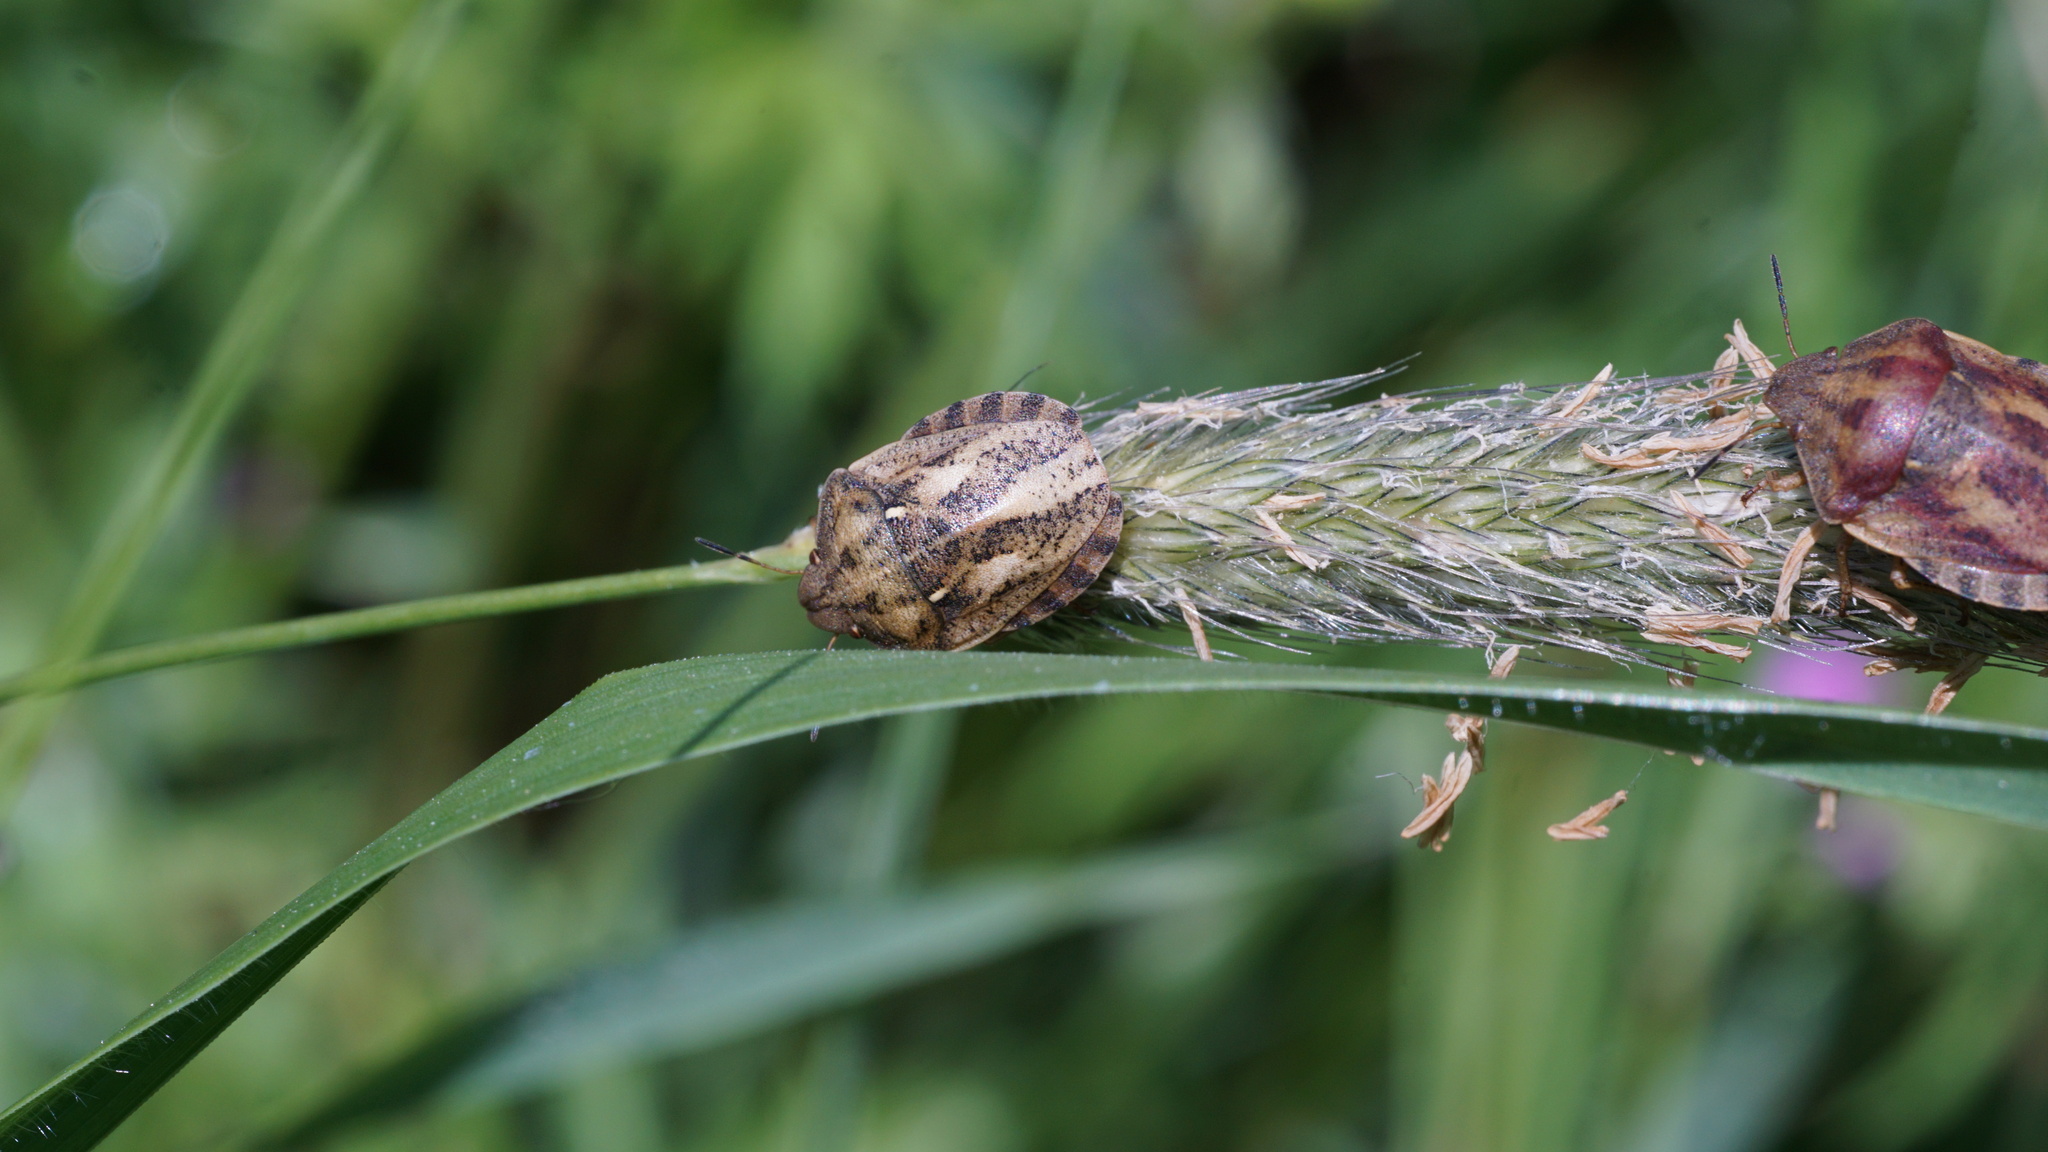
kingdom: Animalia
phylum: Arthropoda
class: Insecta
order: Hemiptera
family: Scutelleridae
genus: Eurygaster
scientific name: Eurygaster testudinaria
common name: Tortoise bug
